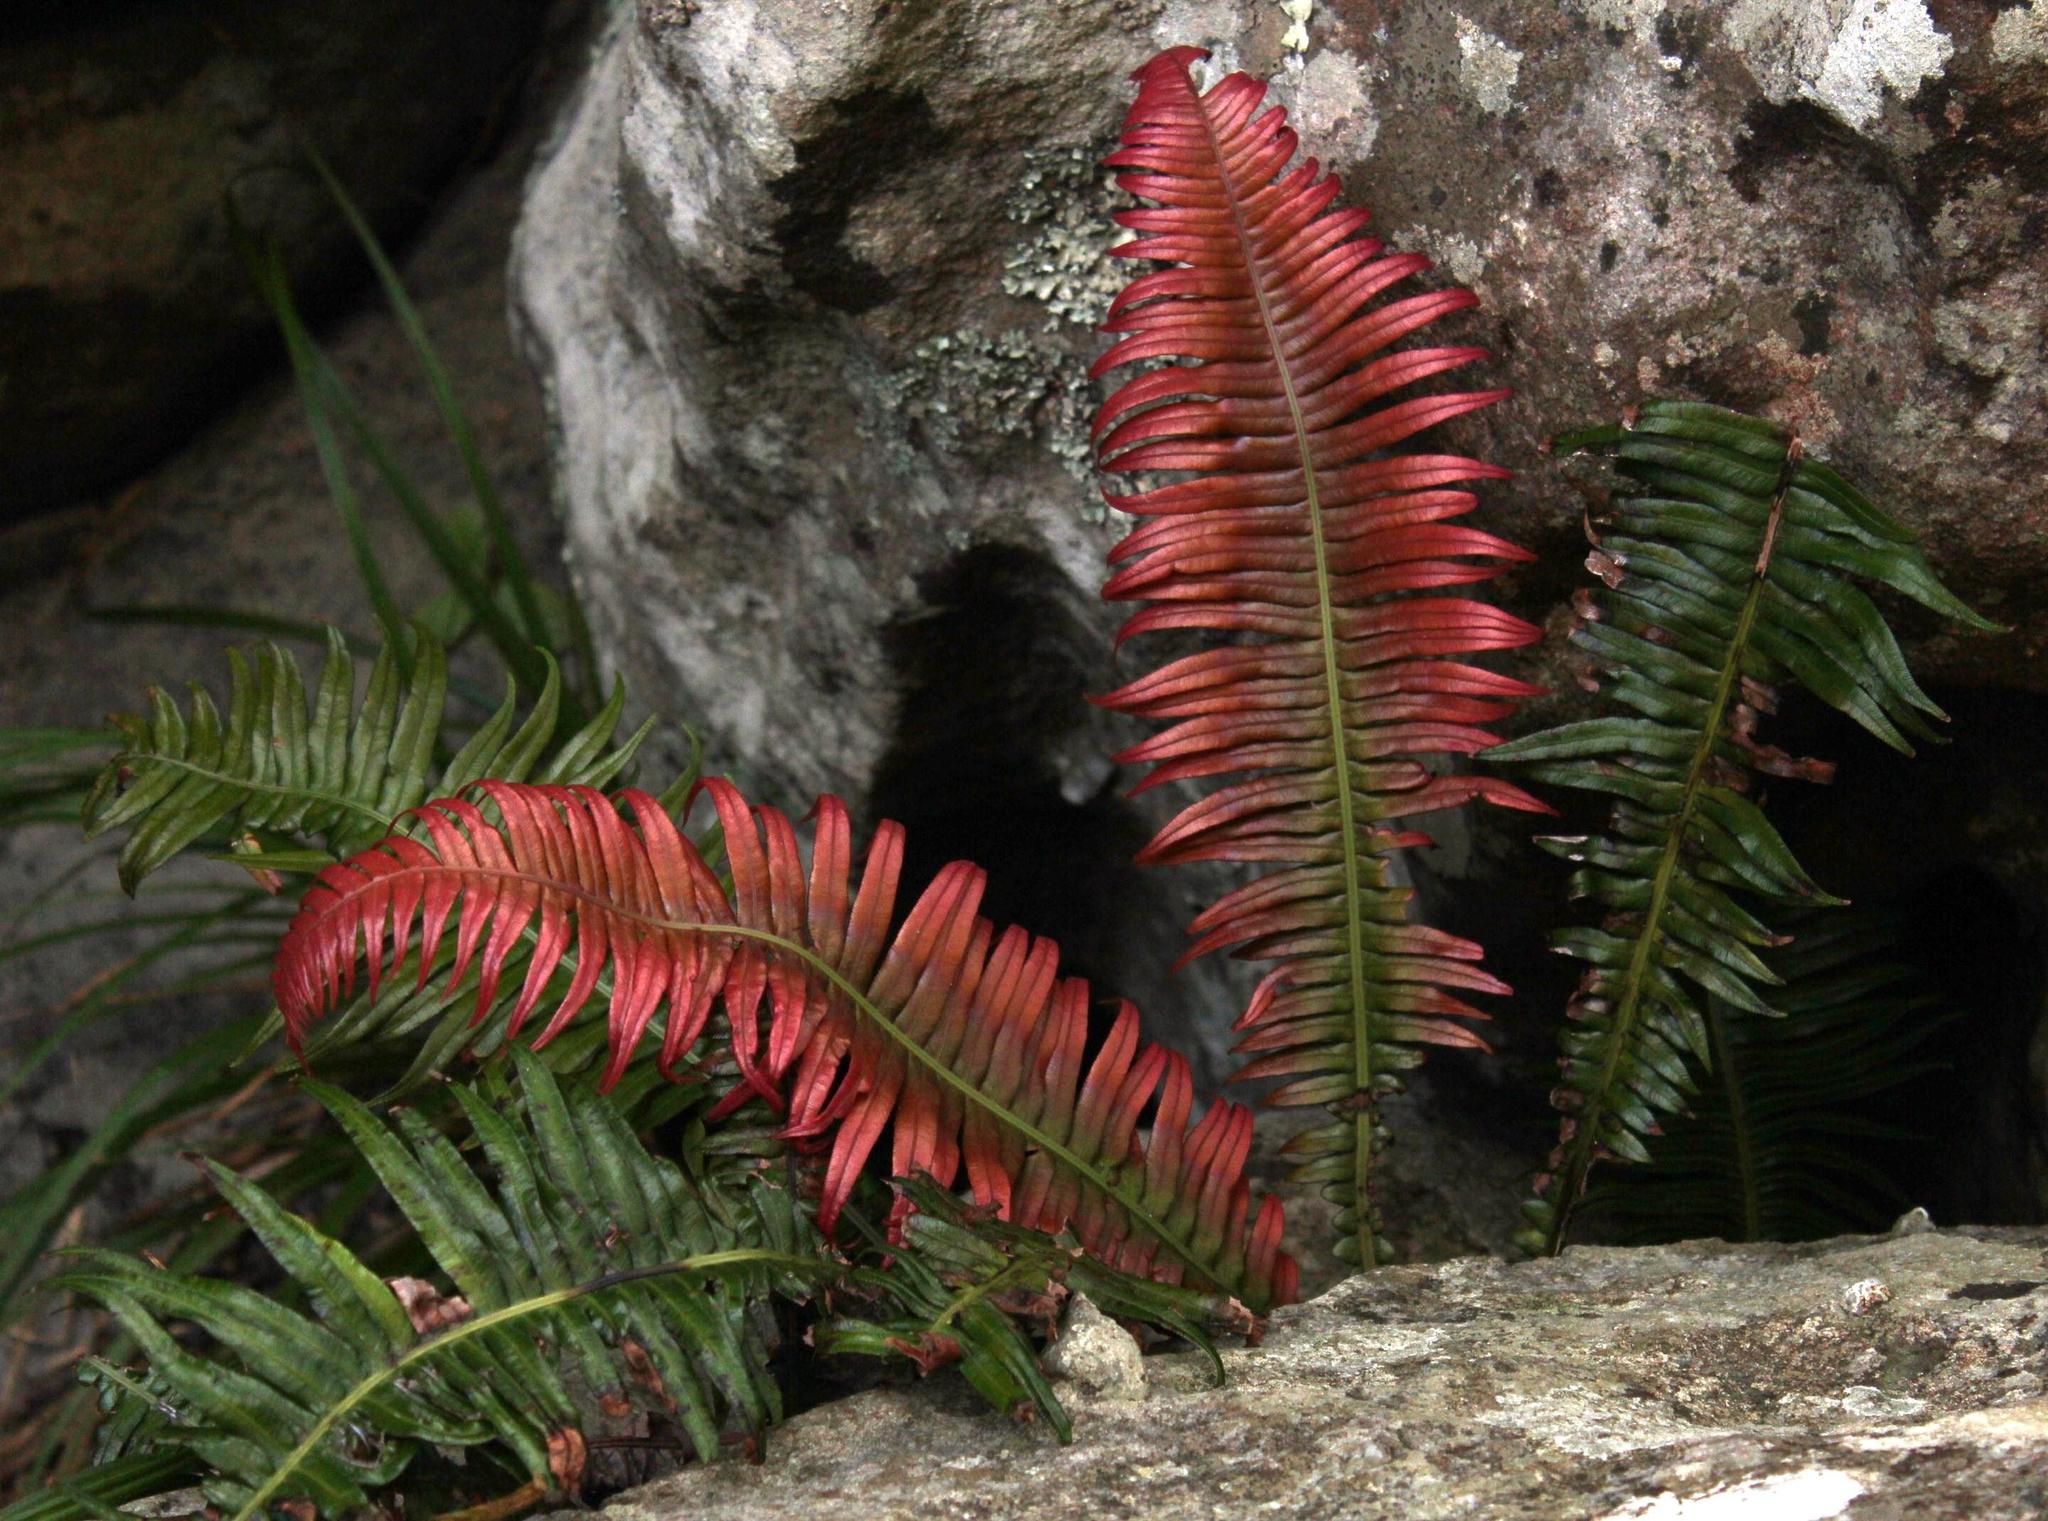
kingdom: Plantae
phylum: Tracheophyta
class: Polypodiopsida
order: Polypodiales
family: Blechnaceae
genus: Lomaridium
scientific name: Lomaridium attenuatum
